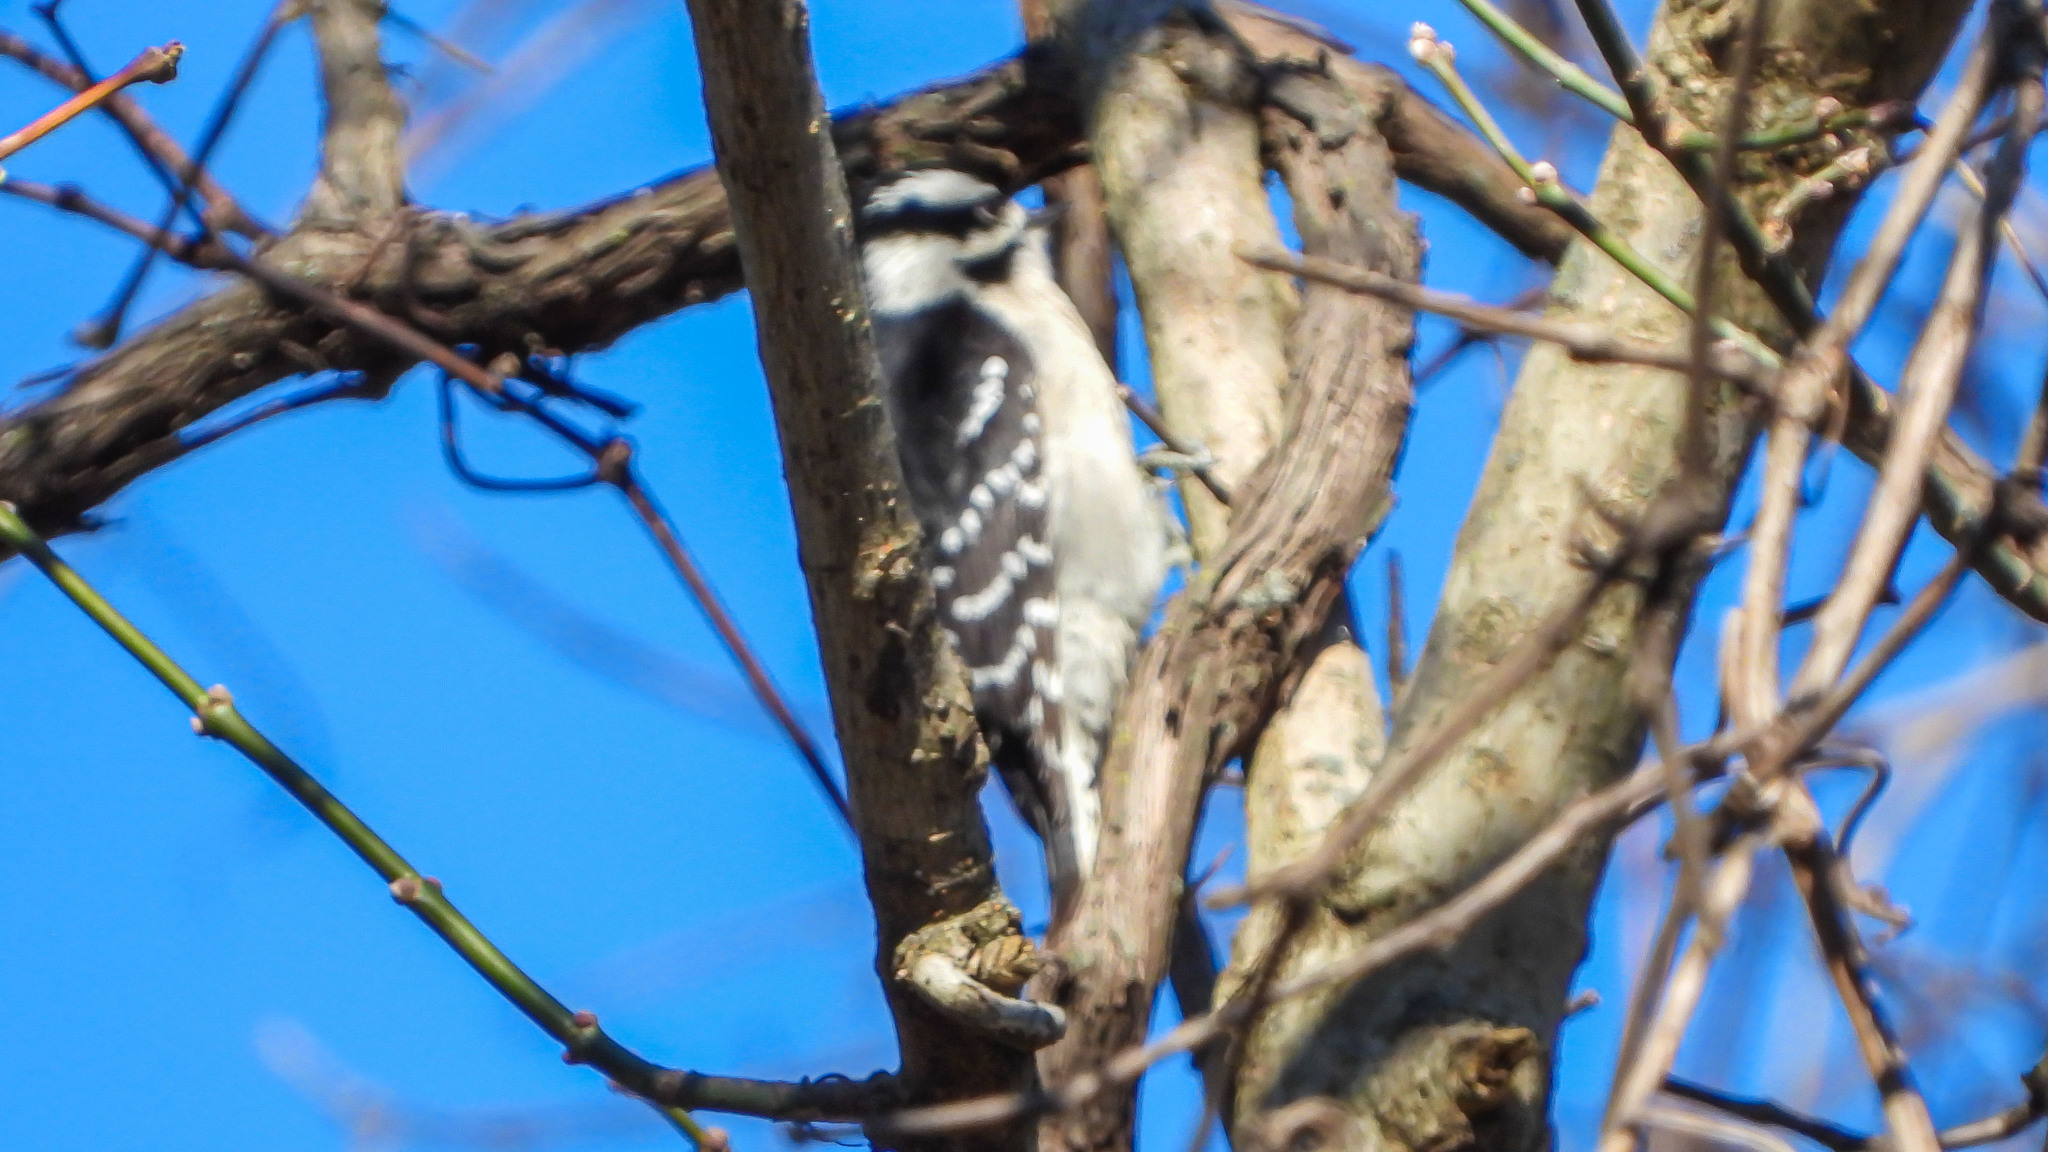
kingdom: Animalia
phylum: Chordata
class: Aves
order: Piciformes
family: Picidae
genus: Dryobates
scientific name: Dryobates pubescens
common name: Downy woodpecker
